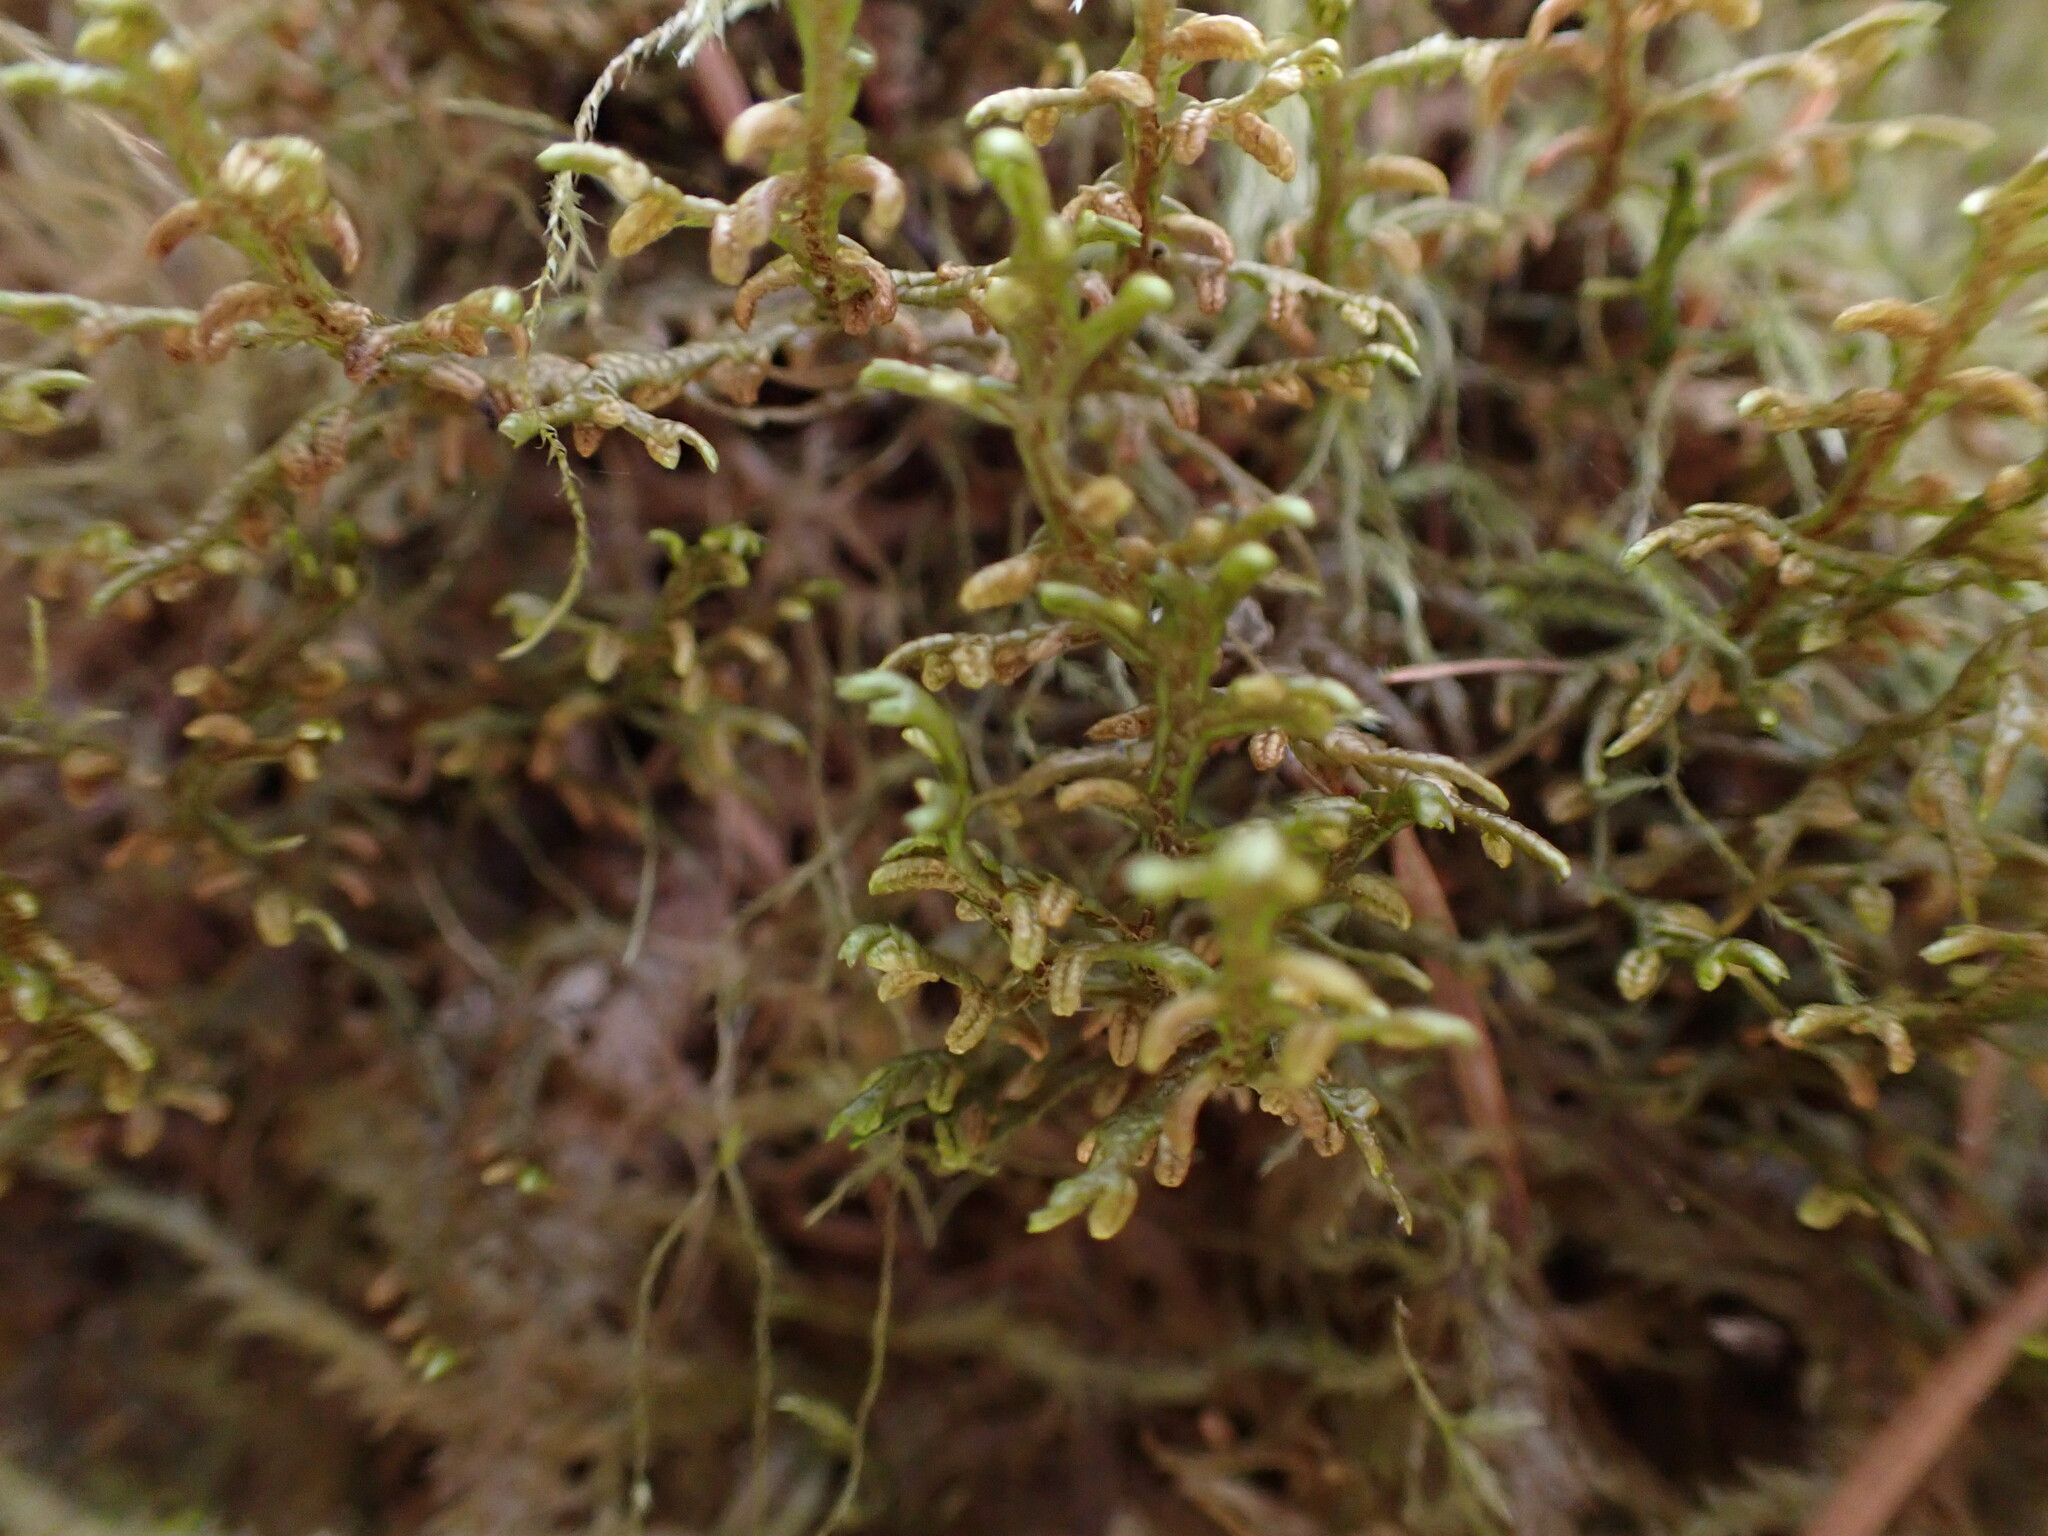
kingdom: Plantae
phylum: Marchantiophyta
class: Jungermanniopsida
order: Porellales
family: Porellaceae
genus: Porella
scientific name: Porella navicularis
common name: Tree ruffle liverwort
